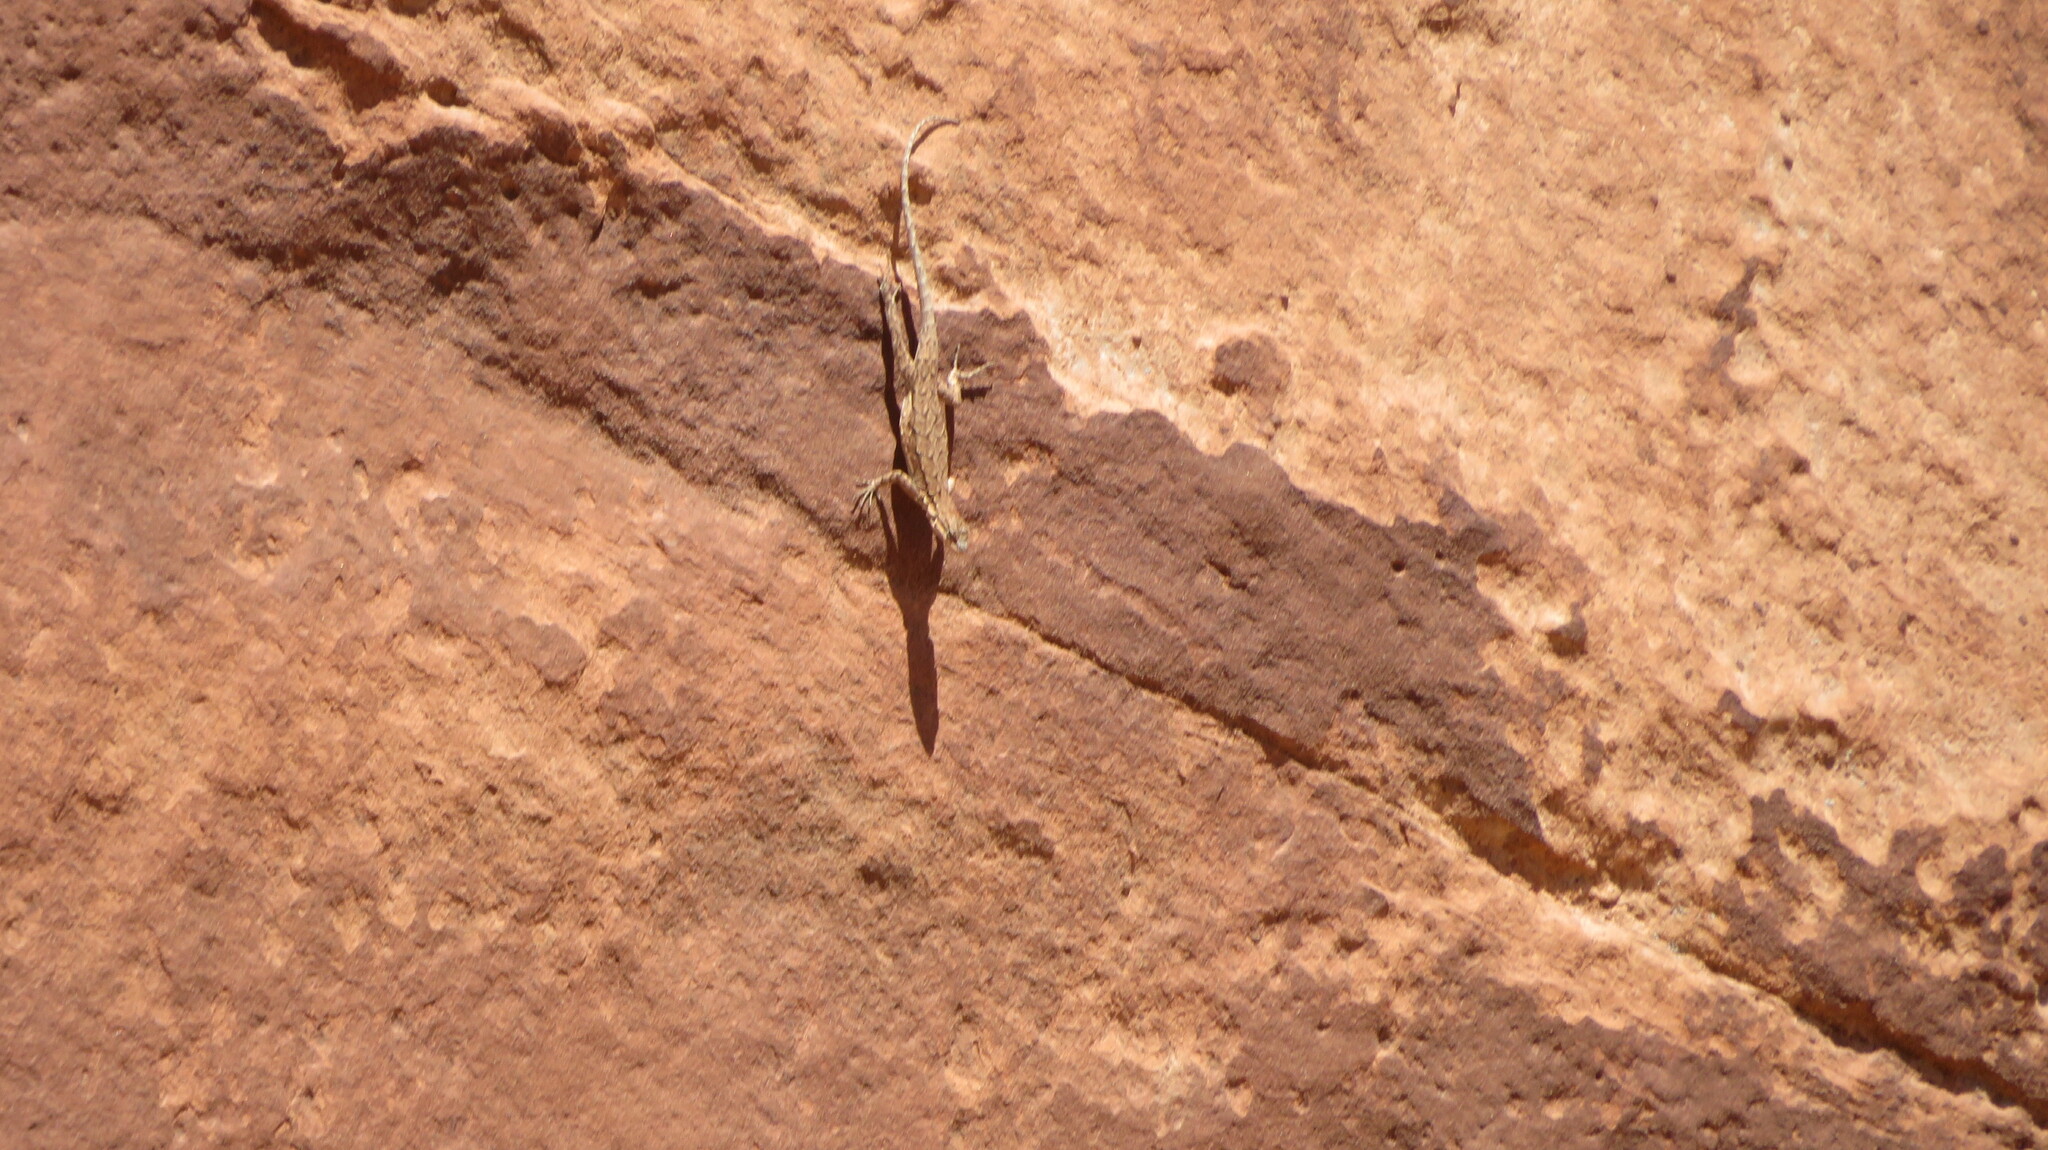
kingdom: Animalia
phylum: Chordata
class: Squamata
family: Phrynosomatidae
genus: Urosaurus
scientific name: Urosaurus ornatus
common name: Ornate tree lizard
